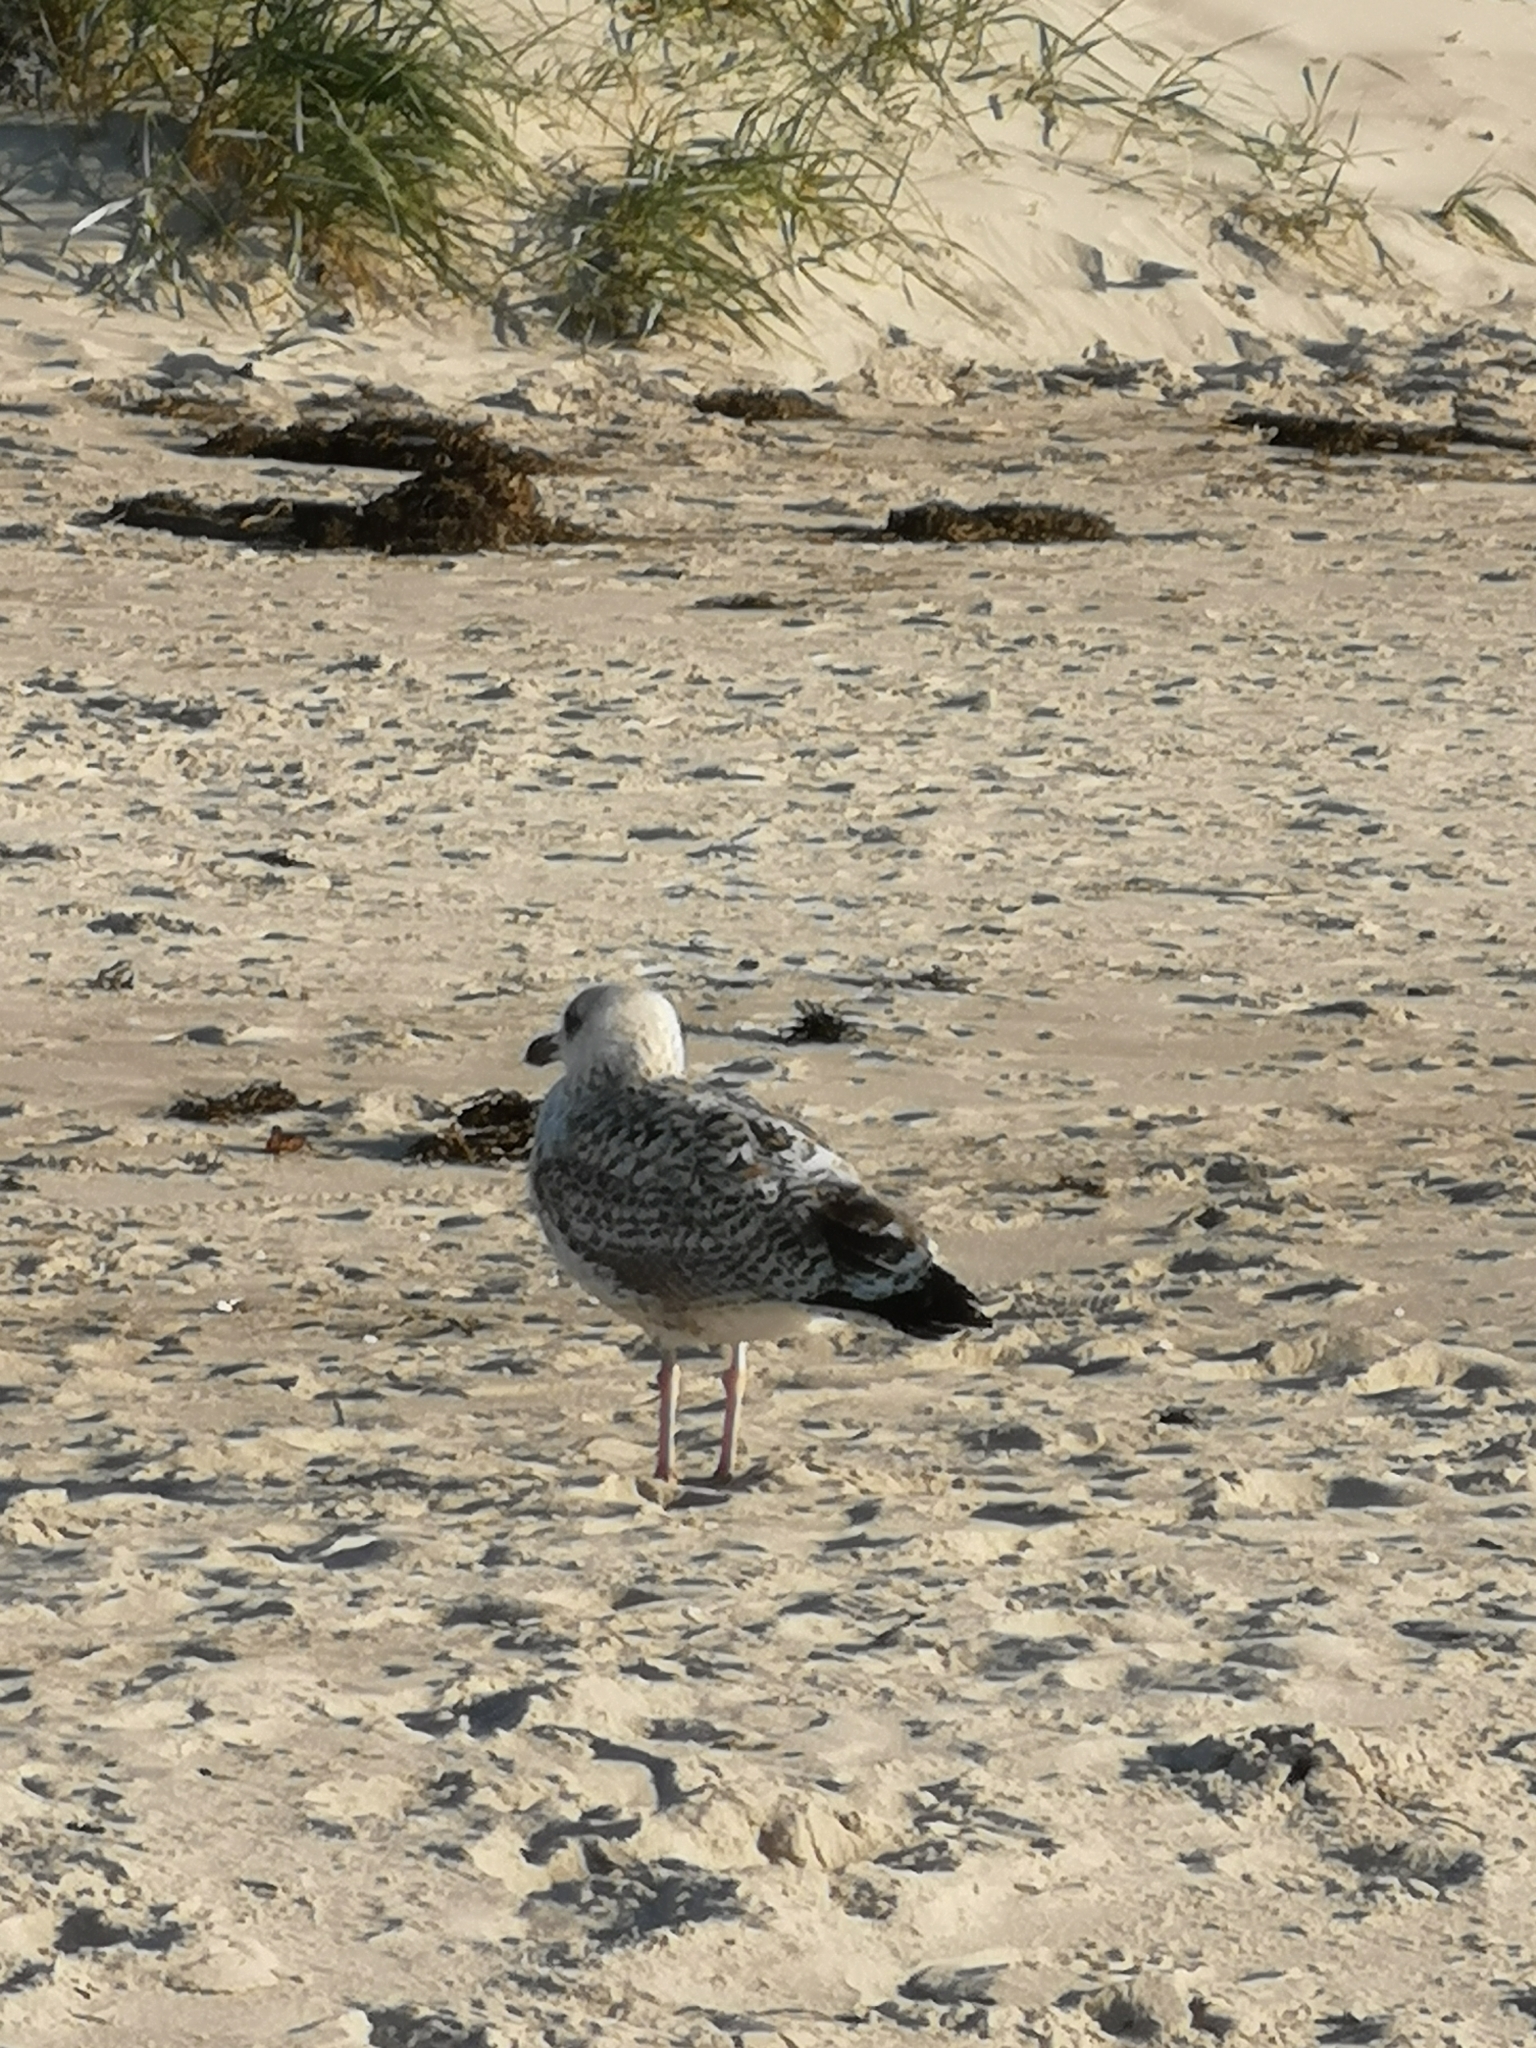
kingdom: Animalia
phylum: Chordata
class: Aves
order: Charadriiformes
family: Laridae
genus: Larus
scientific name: Larus argentatus
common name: Herring gull
